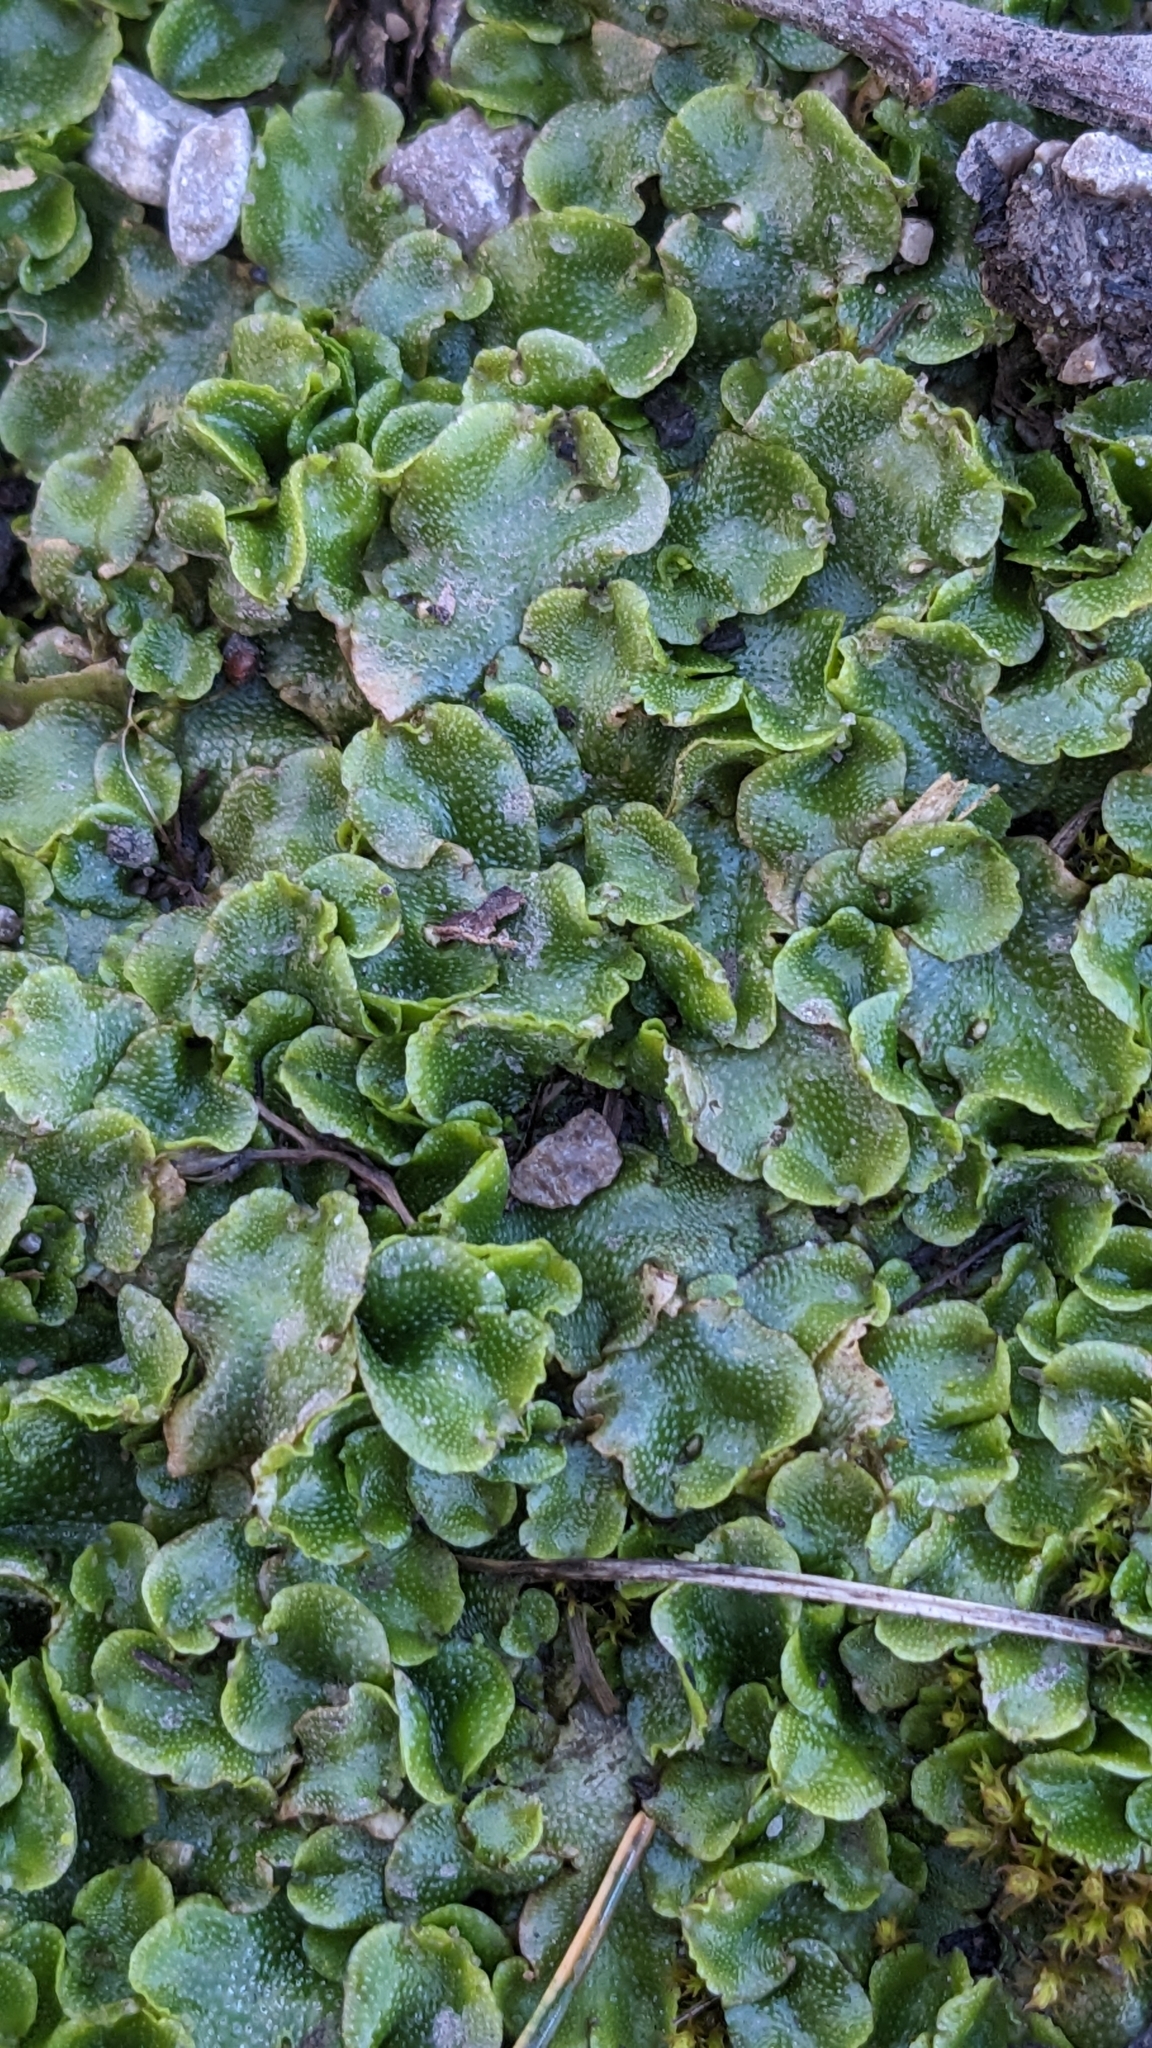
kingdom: Plantae
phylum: Marchantiophyta
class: Marchantiopsida
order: Lunulariales
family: Lunulariaceae
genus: Lunularia
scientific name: Lunularia cruciata
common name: Crescent-cup liverwort
